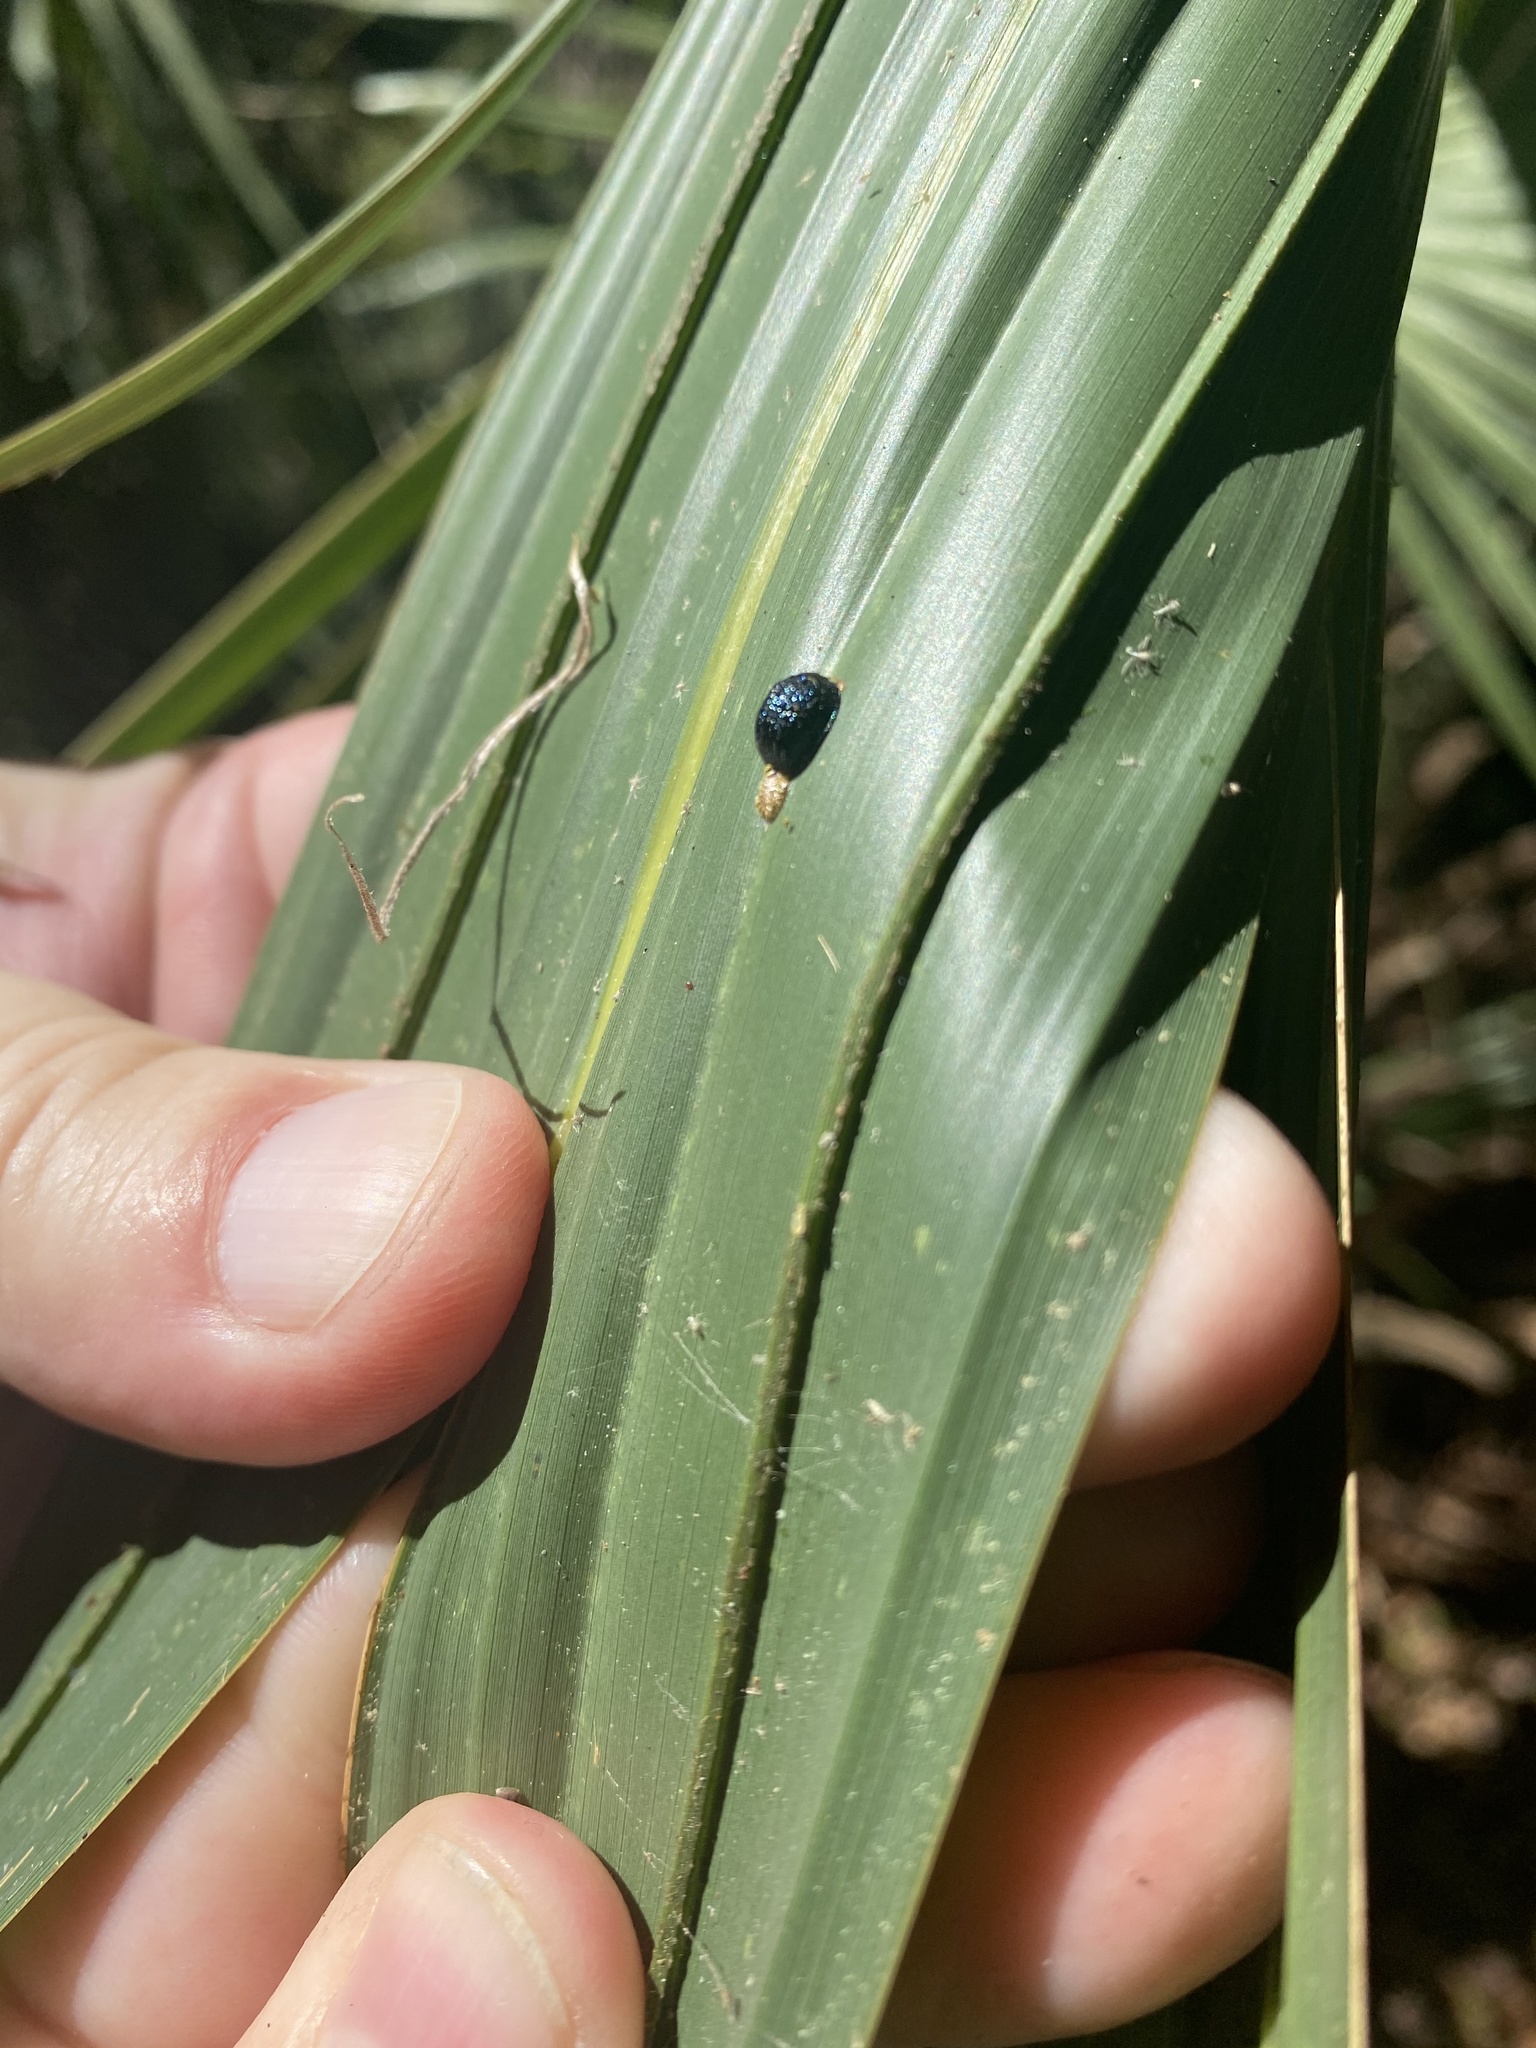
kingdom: Animalia
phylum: Arthropoda
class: Insecta
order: Coleoptera
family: Chrysomelidae
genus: Hemisphaerota
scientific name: Hemisphaerota cyanea
